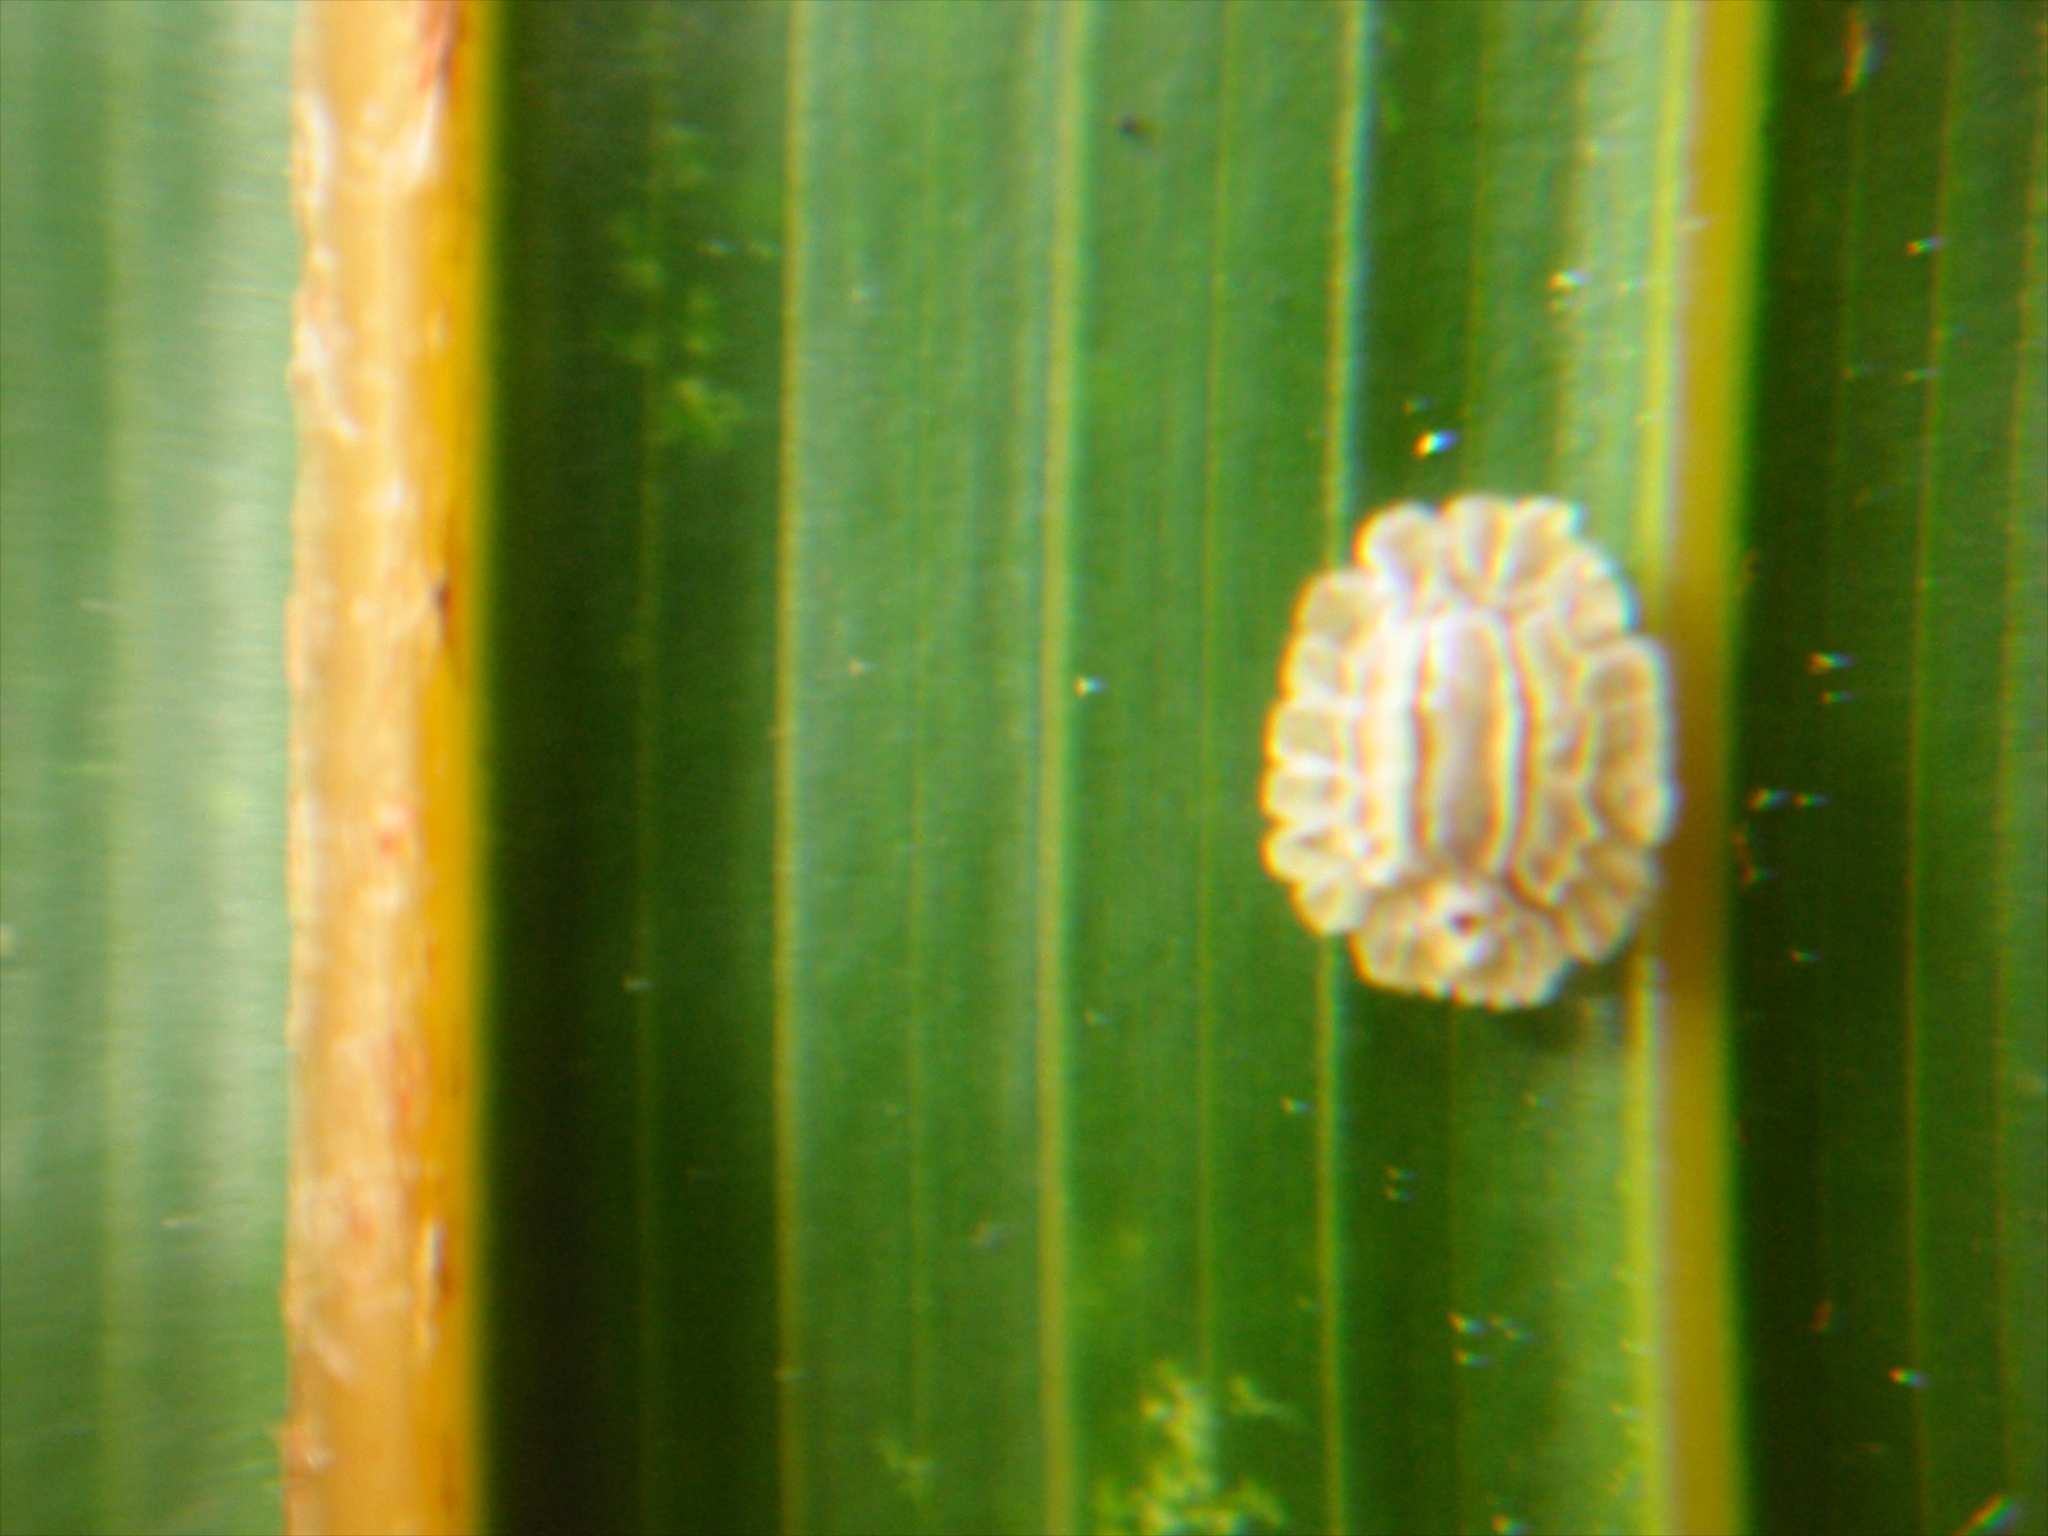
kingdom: Animalia
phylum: Arthropoda
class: Insecta
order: Hemiptera
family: Coccidae
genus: Plumichiton
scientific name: Plumichiton nikau
